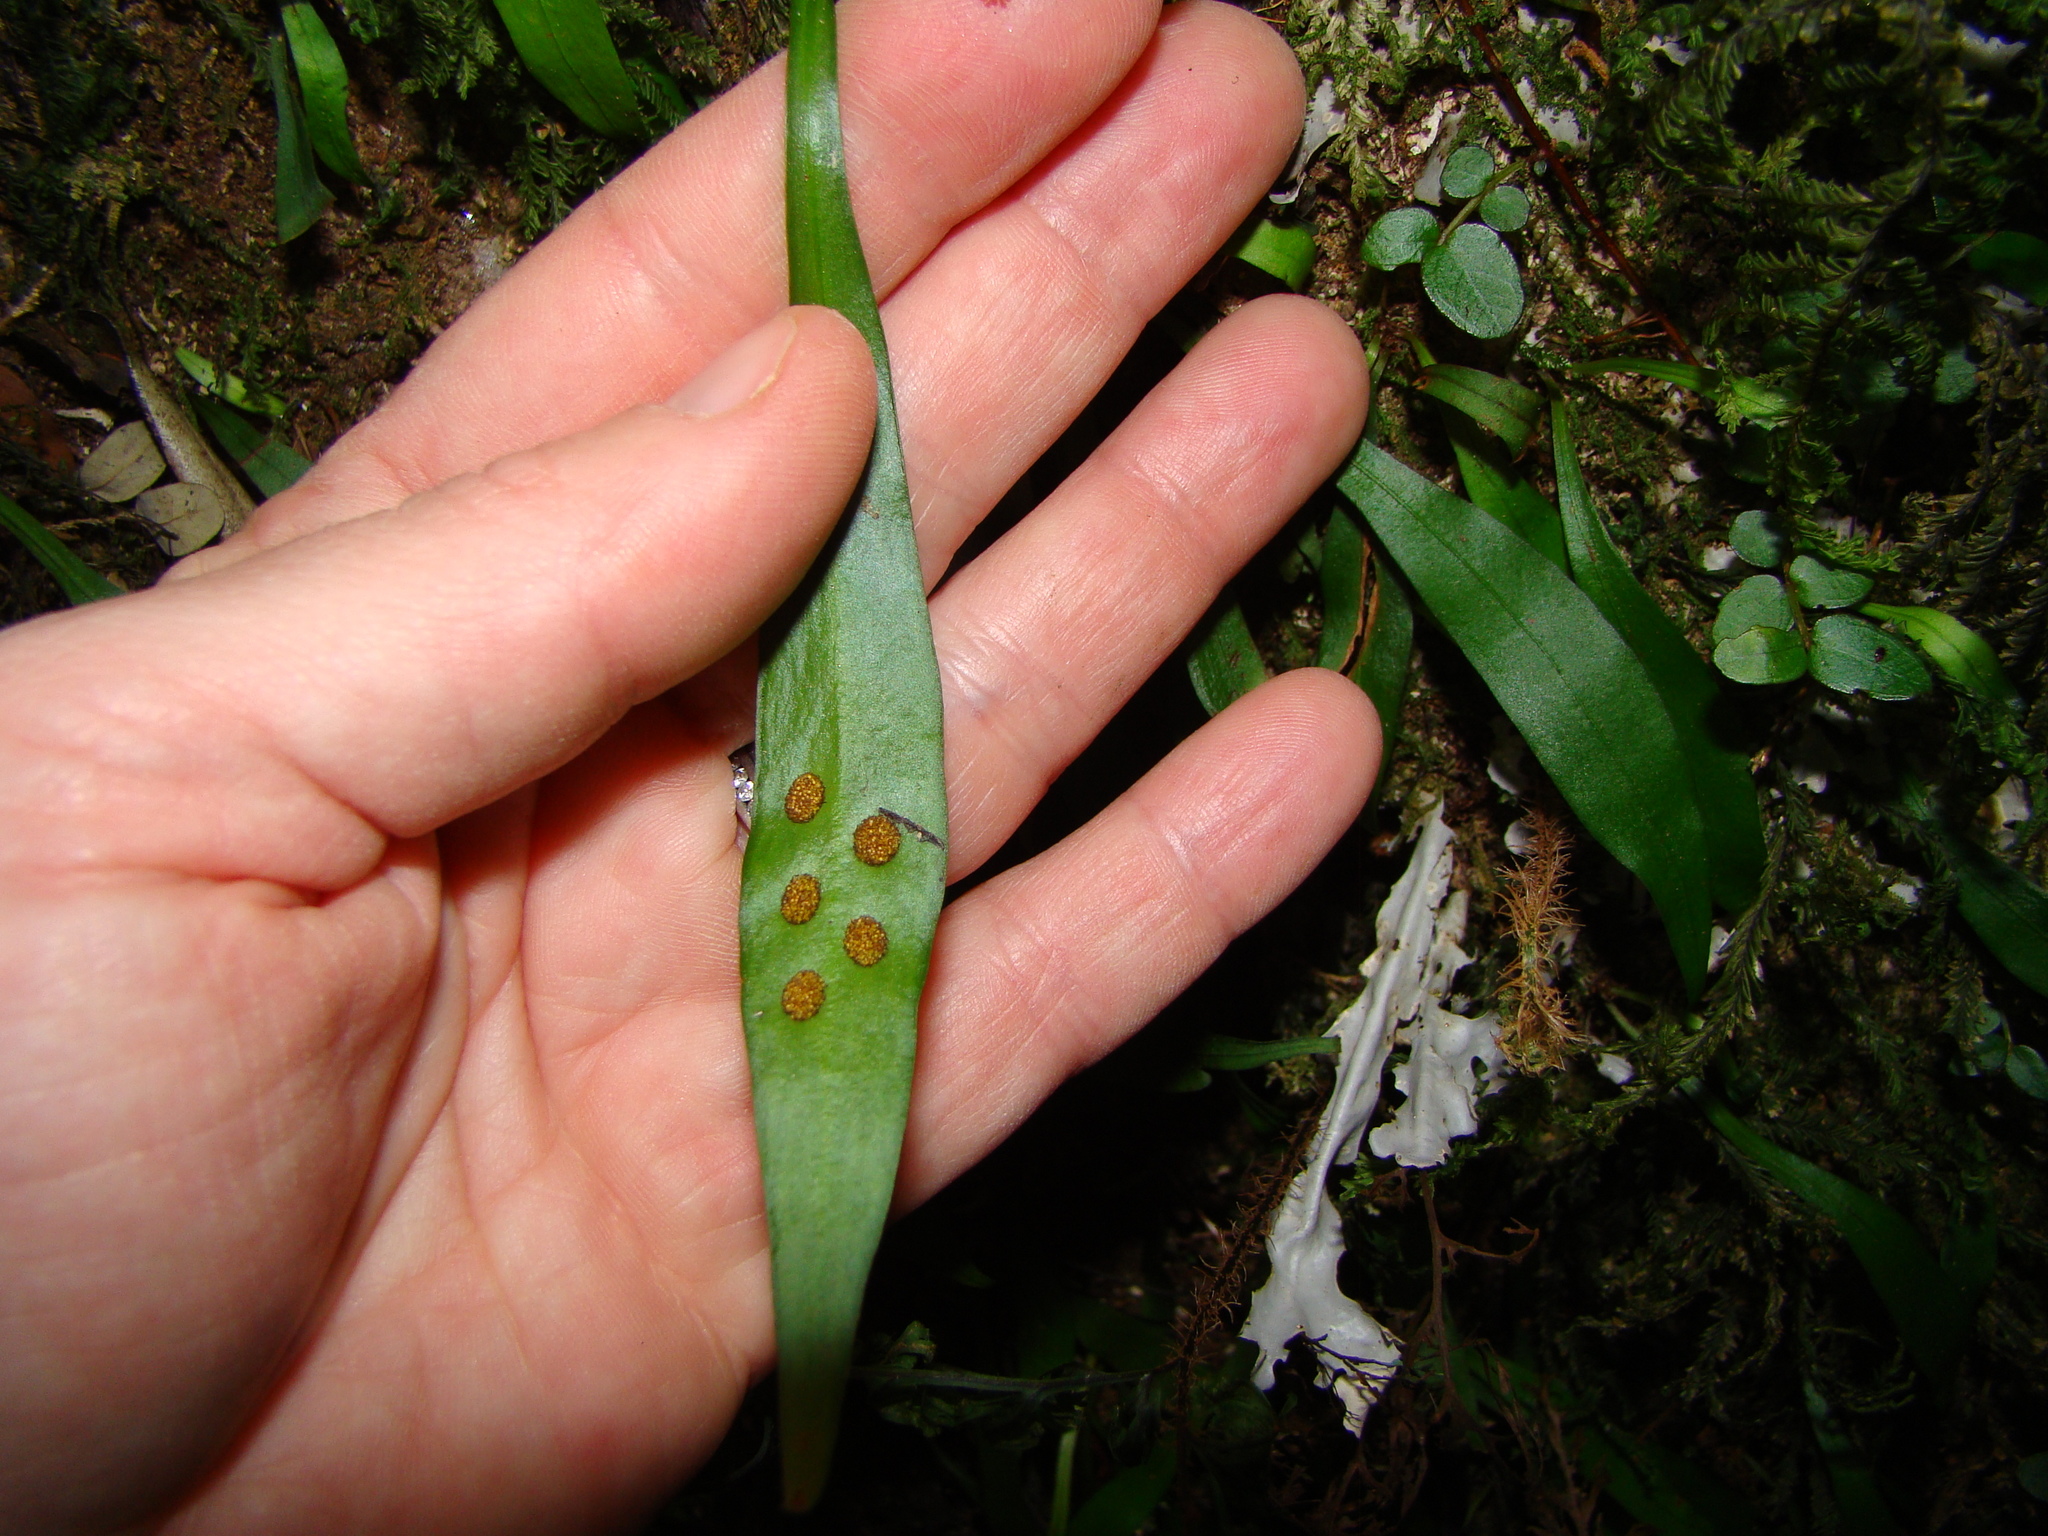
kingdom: Plantae
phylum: Tracheophyta
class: Polypodiopsida
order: Polypodiales
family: Polypodiaceae
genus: Loxogramme
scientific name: Loxogramme dictyopteris
